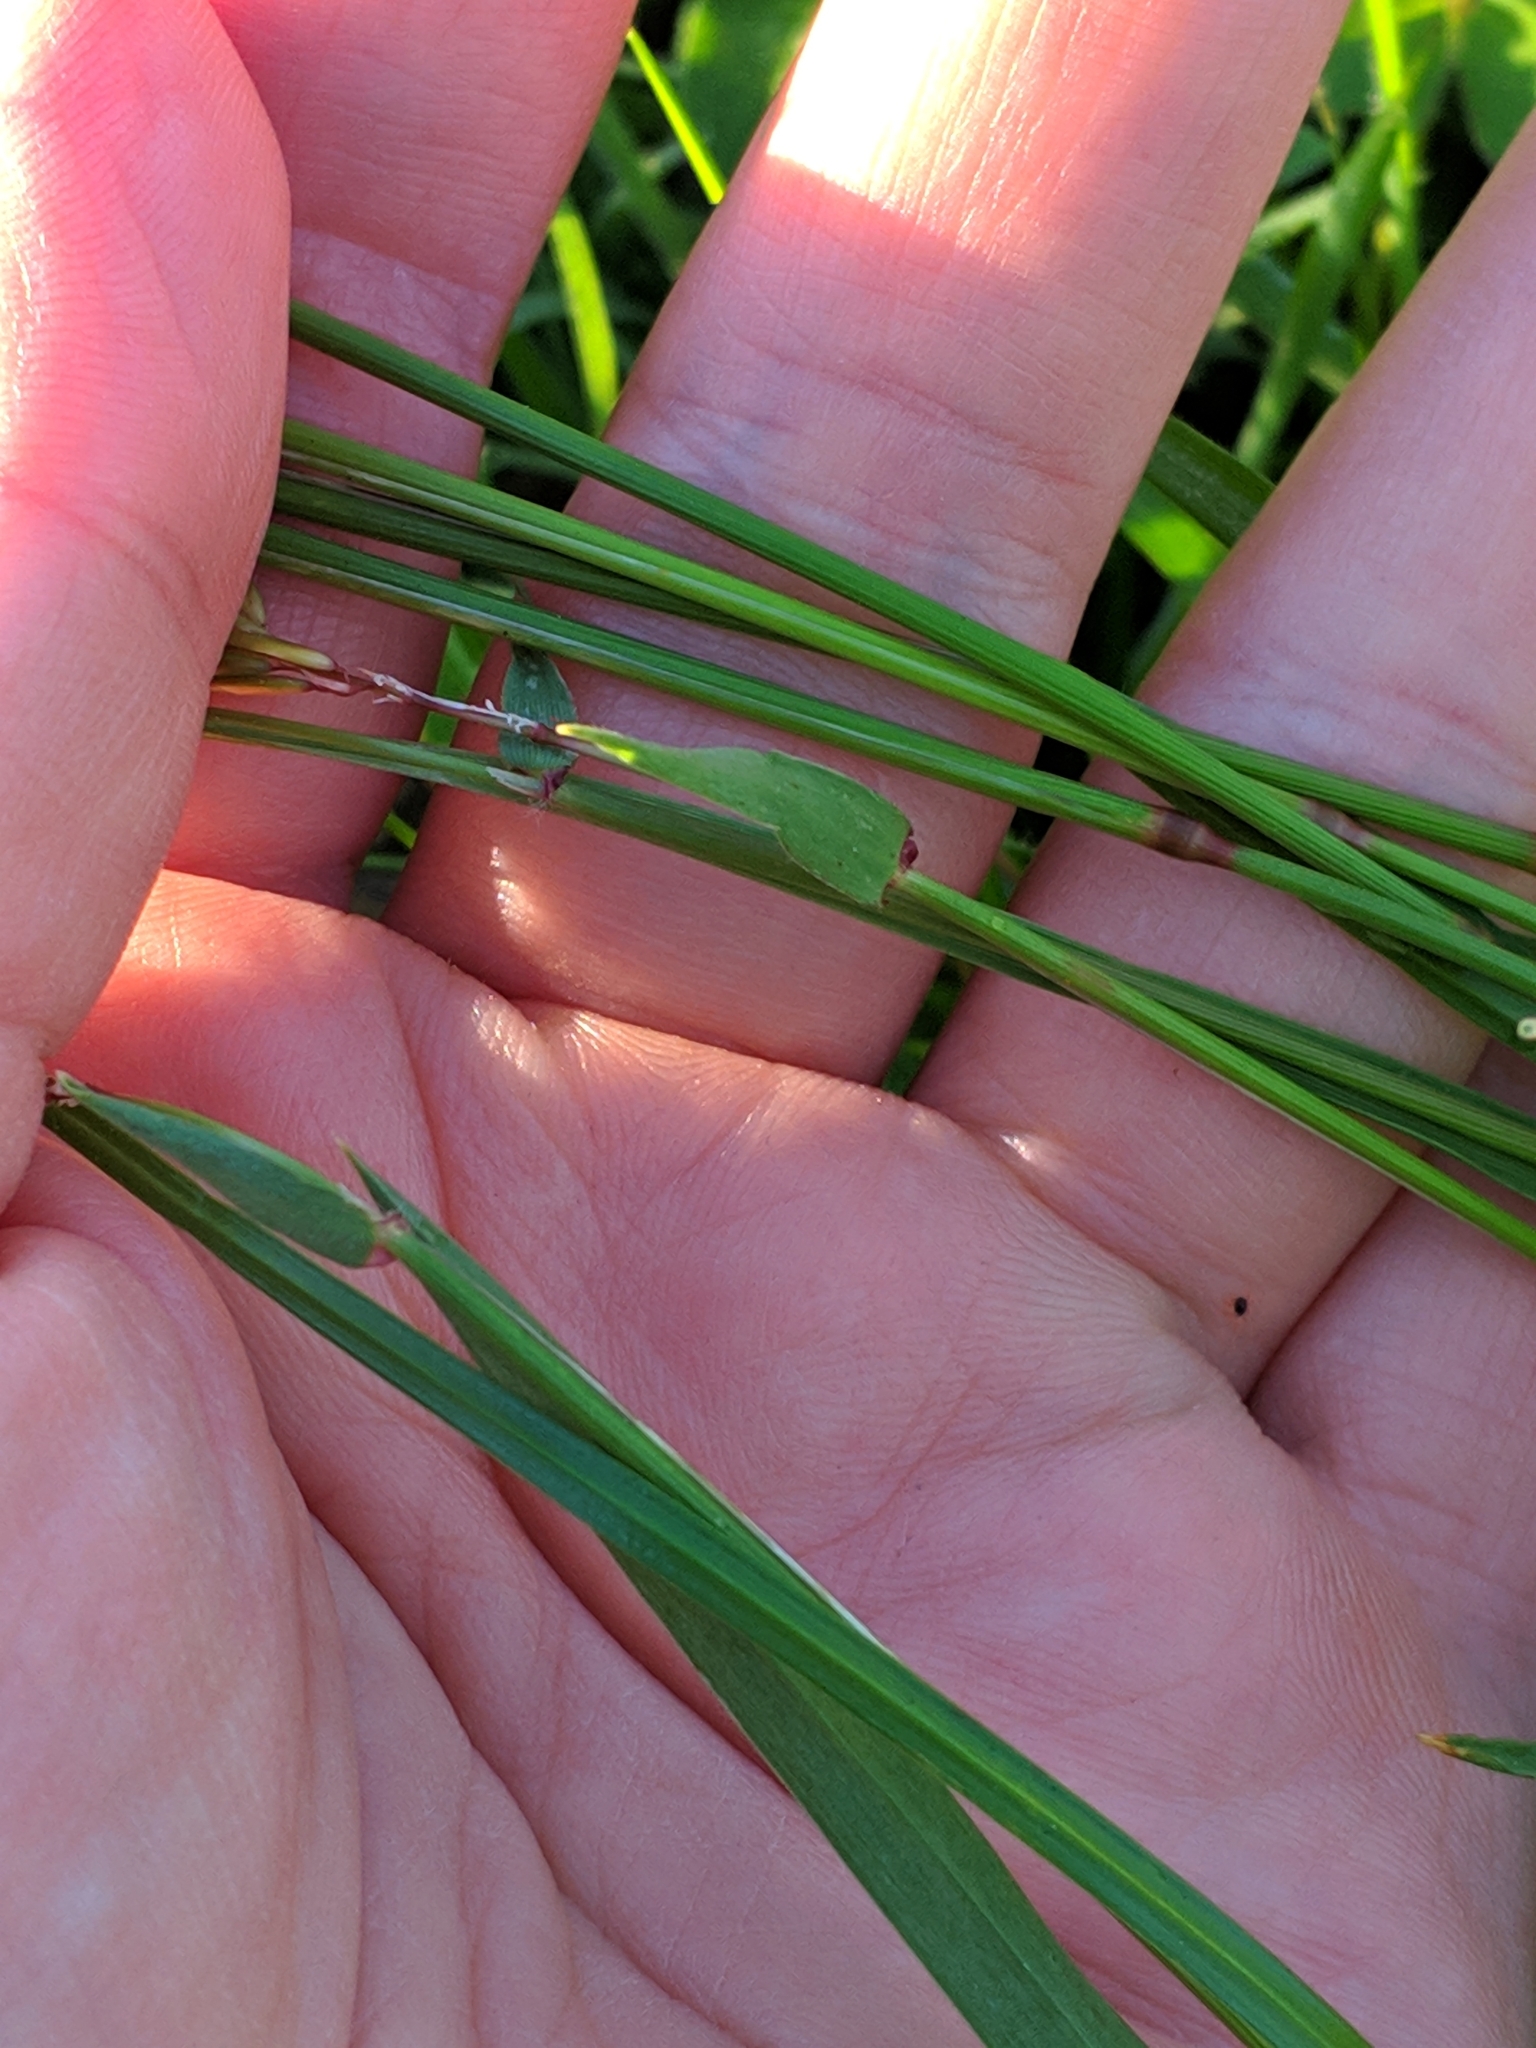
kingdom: Plantae
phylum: Tracheophyta
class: Liliopsida
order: Poales
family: Poaceae
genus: Anthoxanthum
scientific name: Anthoxanthum odoratum
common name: Sweet vernalgrass
